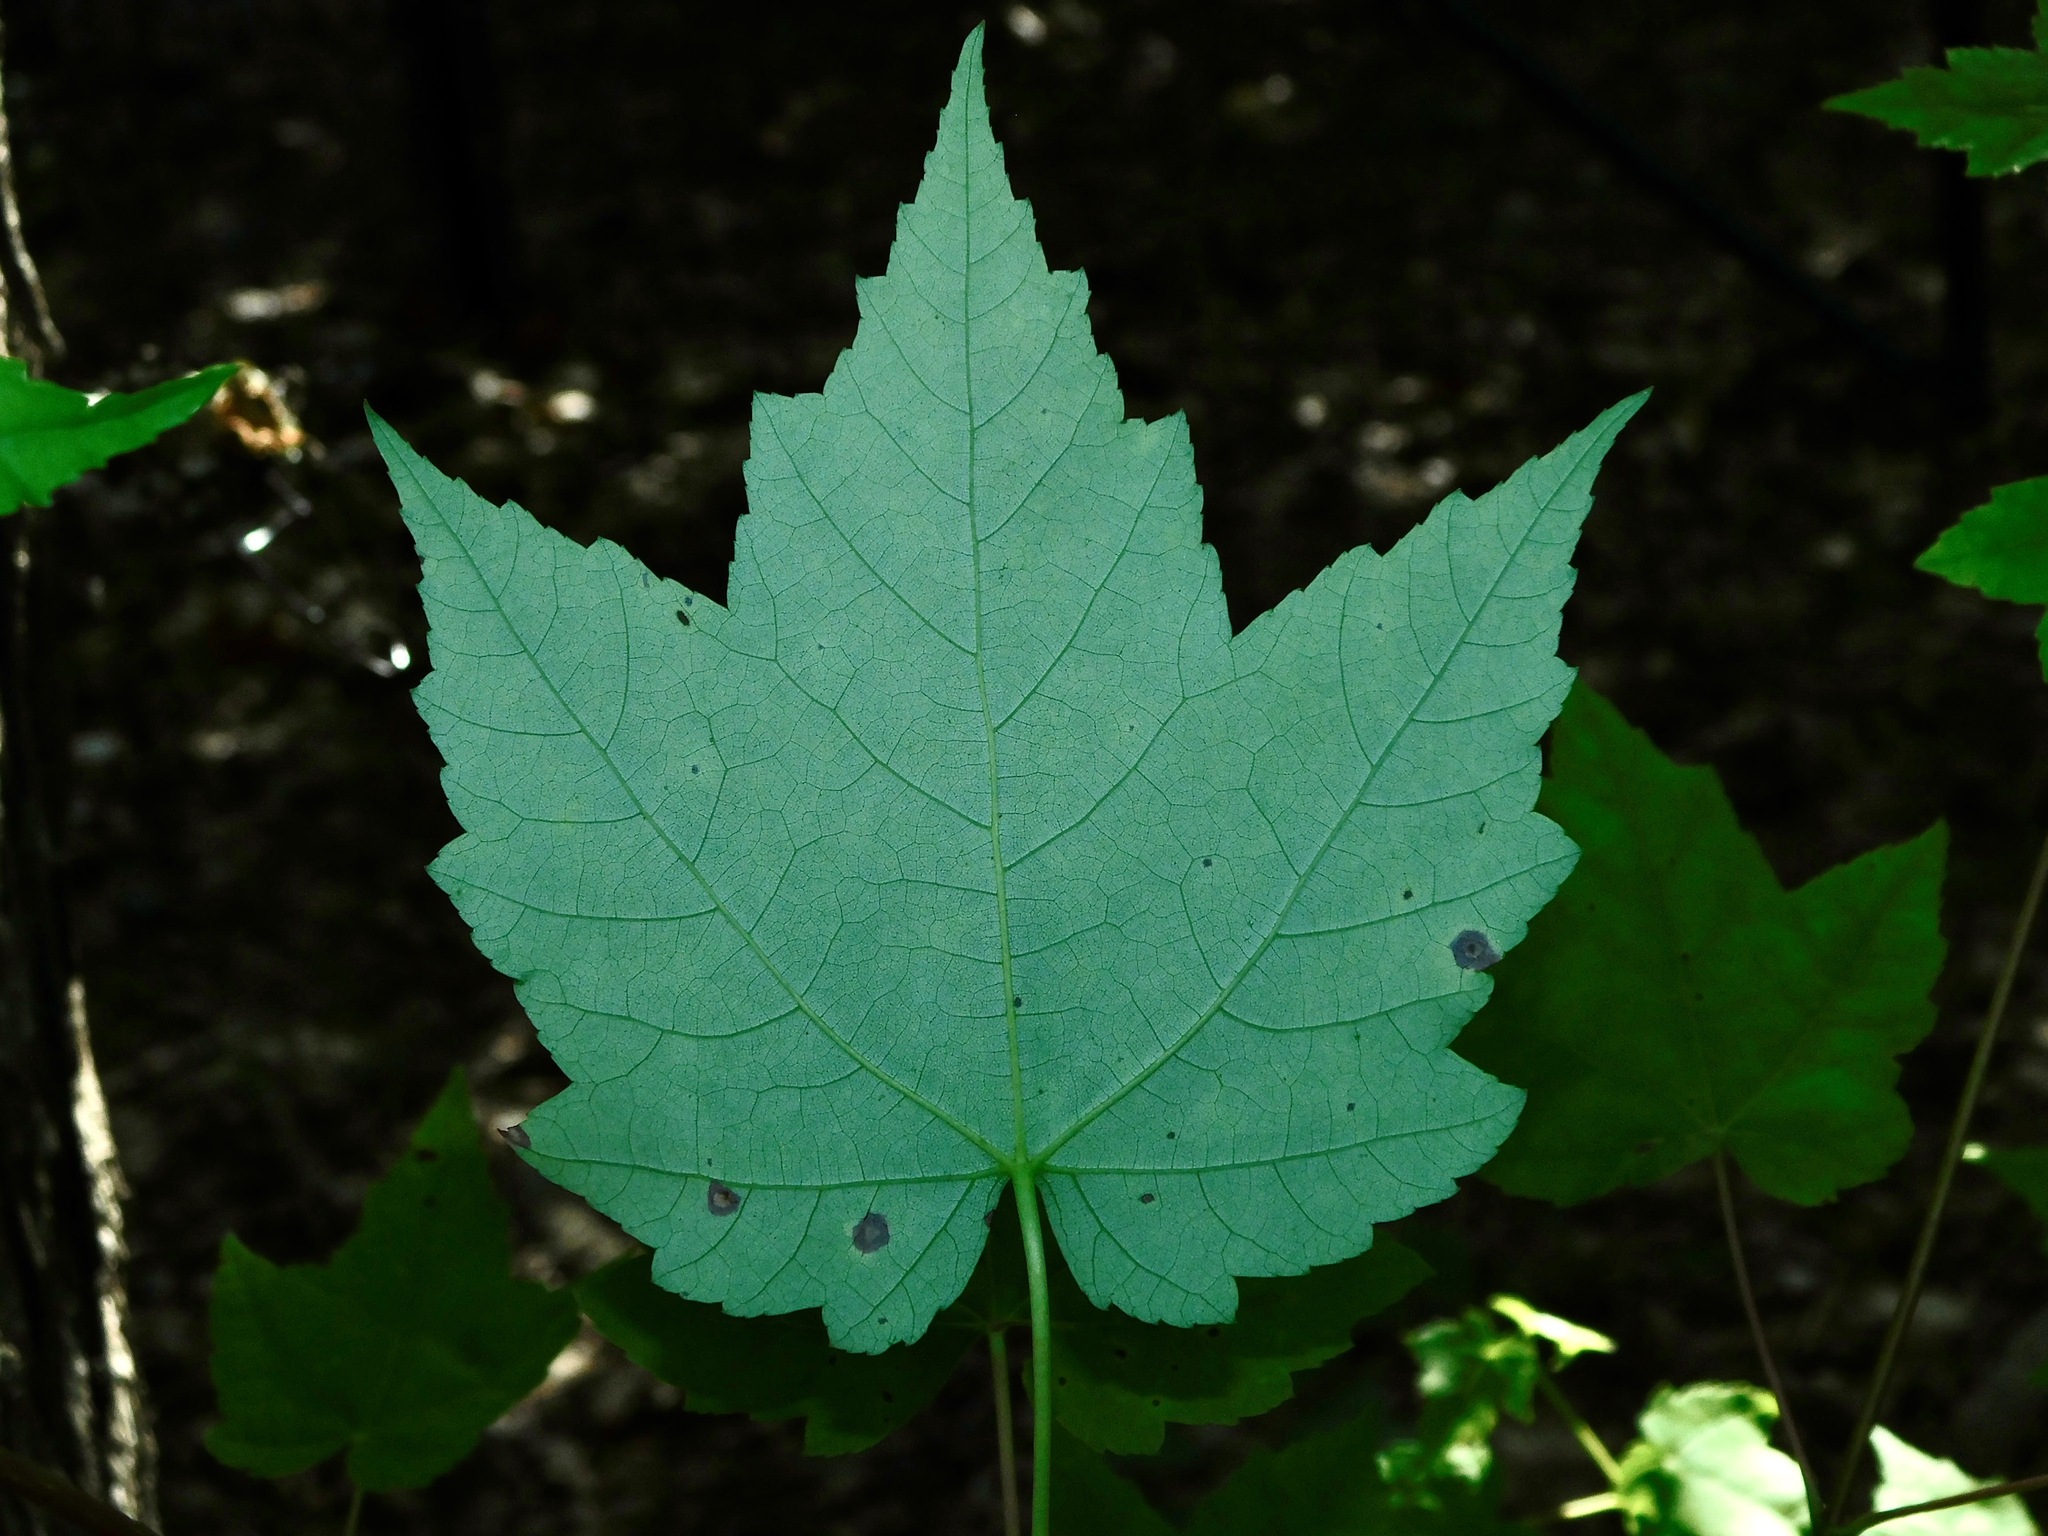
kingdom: Plantae
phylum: Tracheophyta
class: Magnoliopsida
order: Sapindales
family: Sapindaceae
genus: Acer
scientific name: Acer freemanii
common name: Freeman maple
